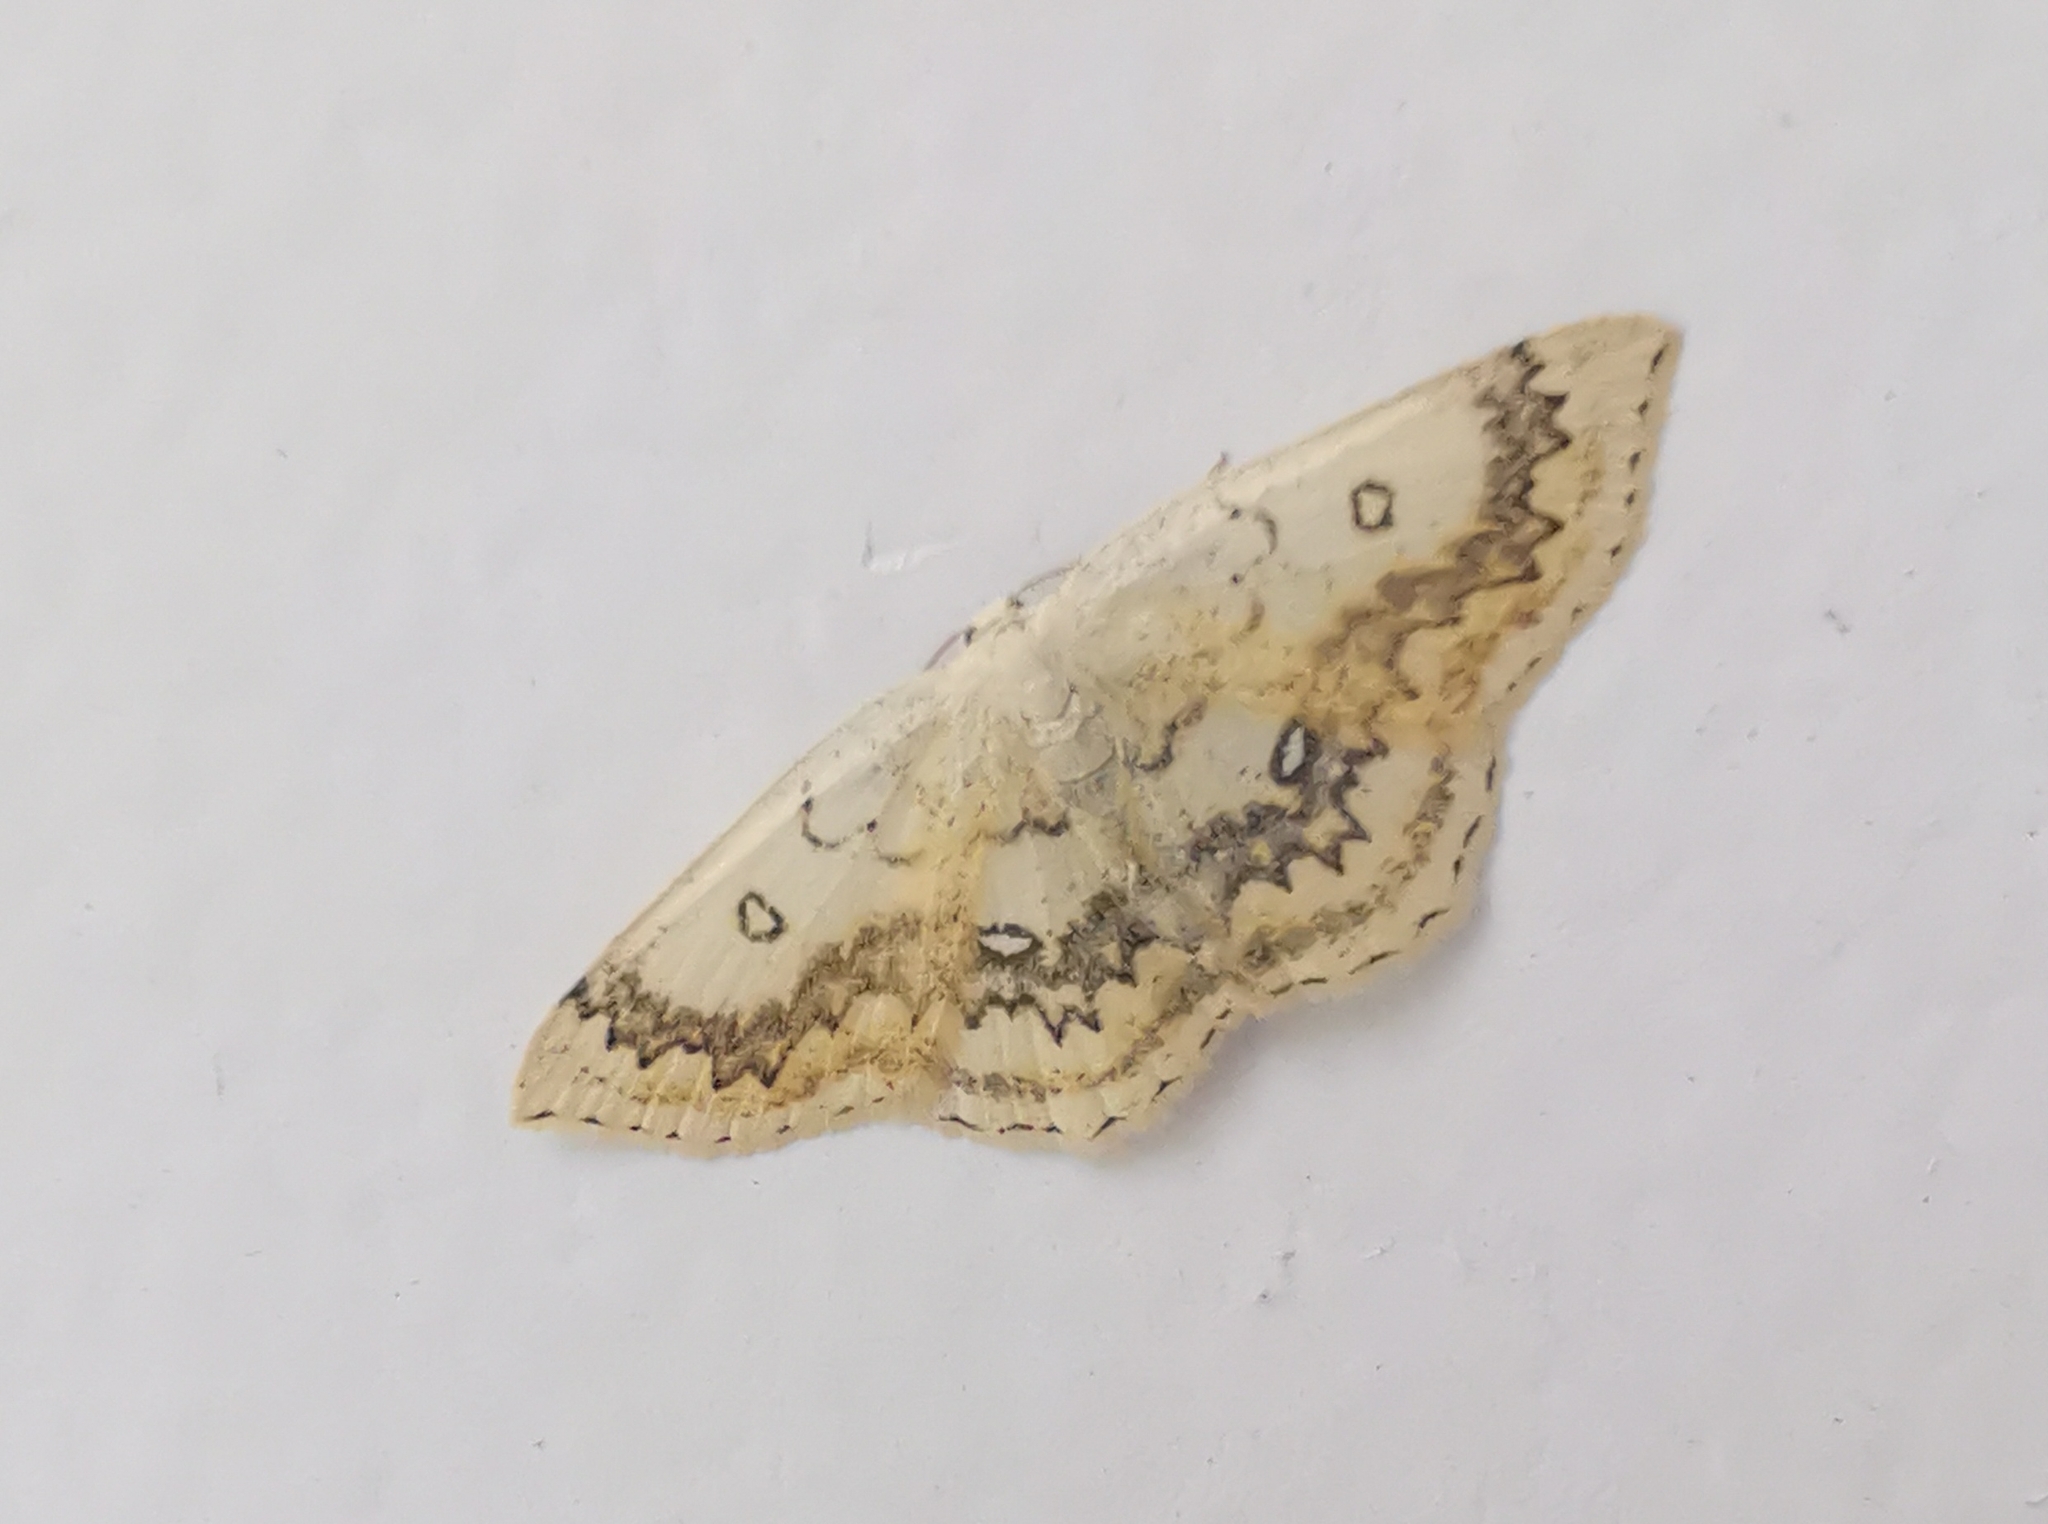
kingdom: Animalia
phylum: Arthropoda
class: Insecta
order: Lepidoptera
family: Geometridae
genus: Cyclophora
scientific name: Cyclophora annularia
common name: Mocha
